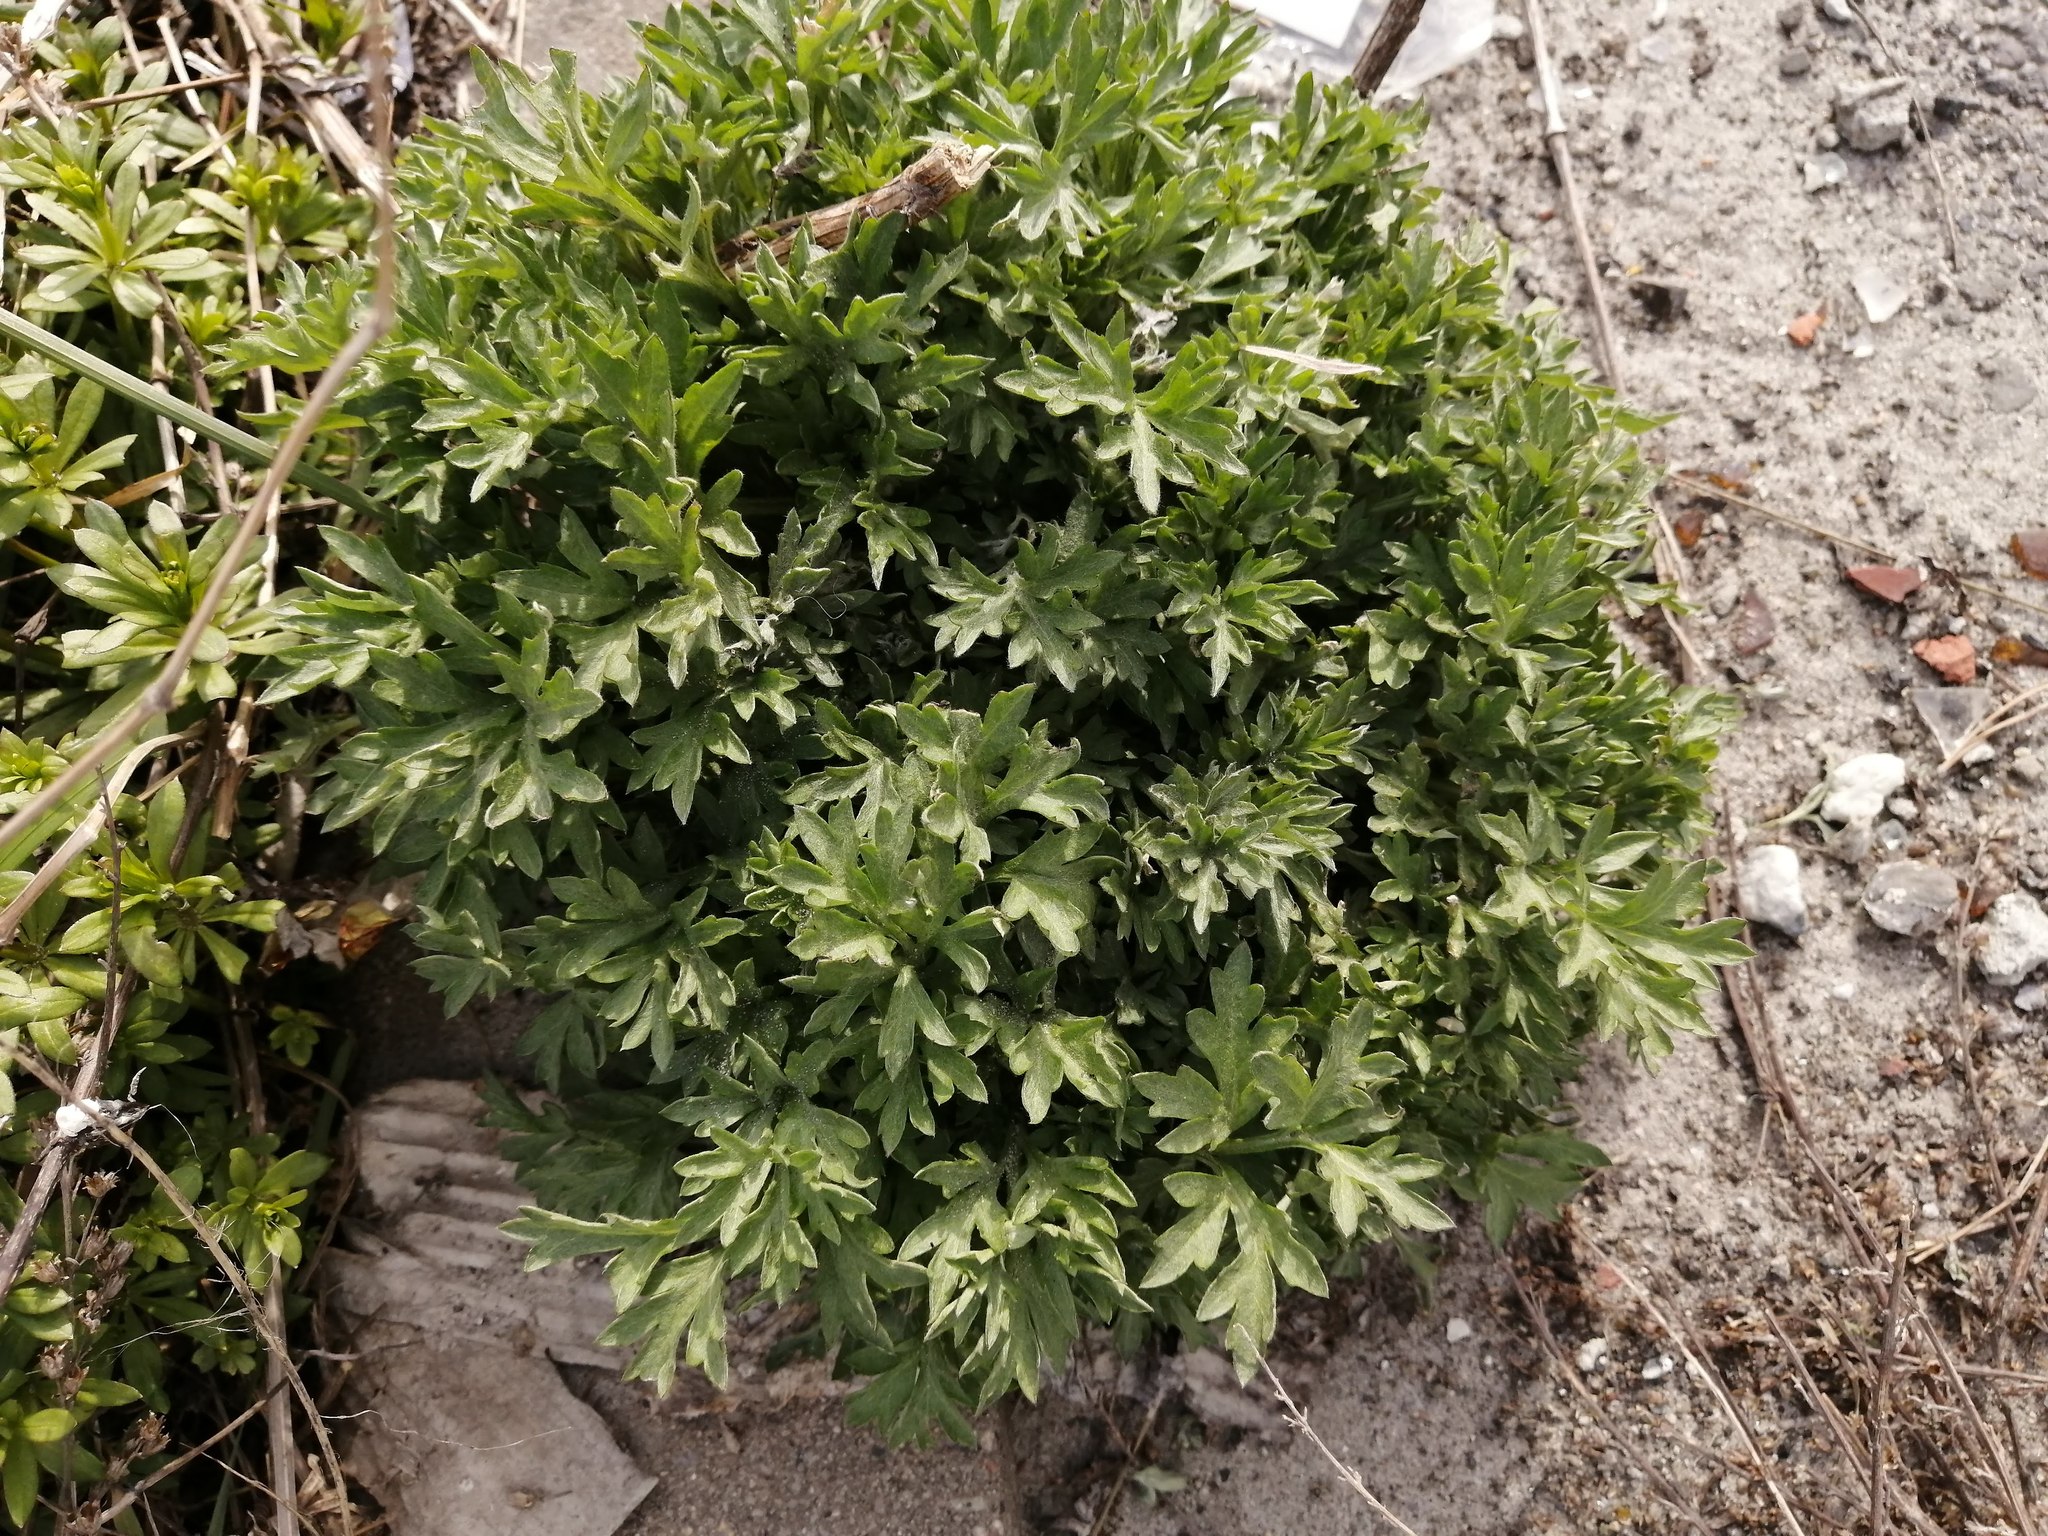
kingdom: Plantae
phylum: Tracheophyta
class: Magnoliopsida
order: Asterales
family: Asteraceae
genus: Artemisia
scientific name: Artemisia vulgaris
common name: Mugwort
